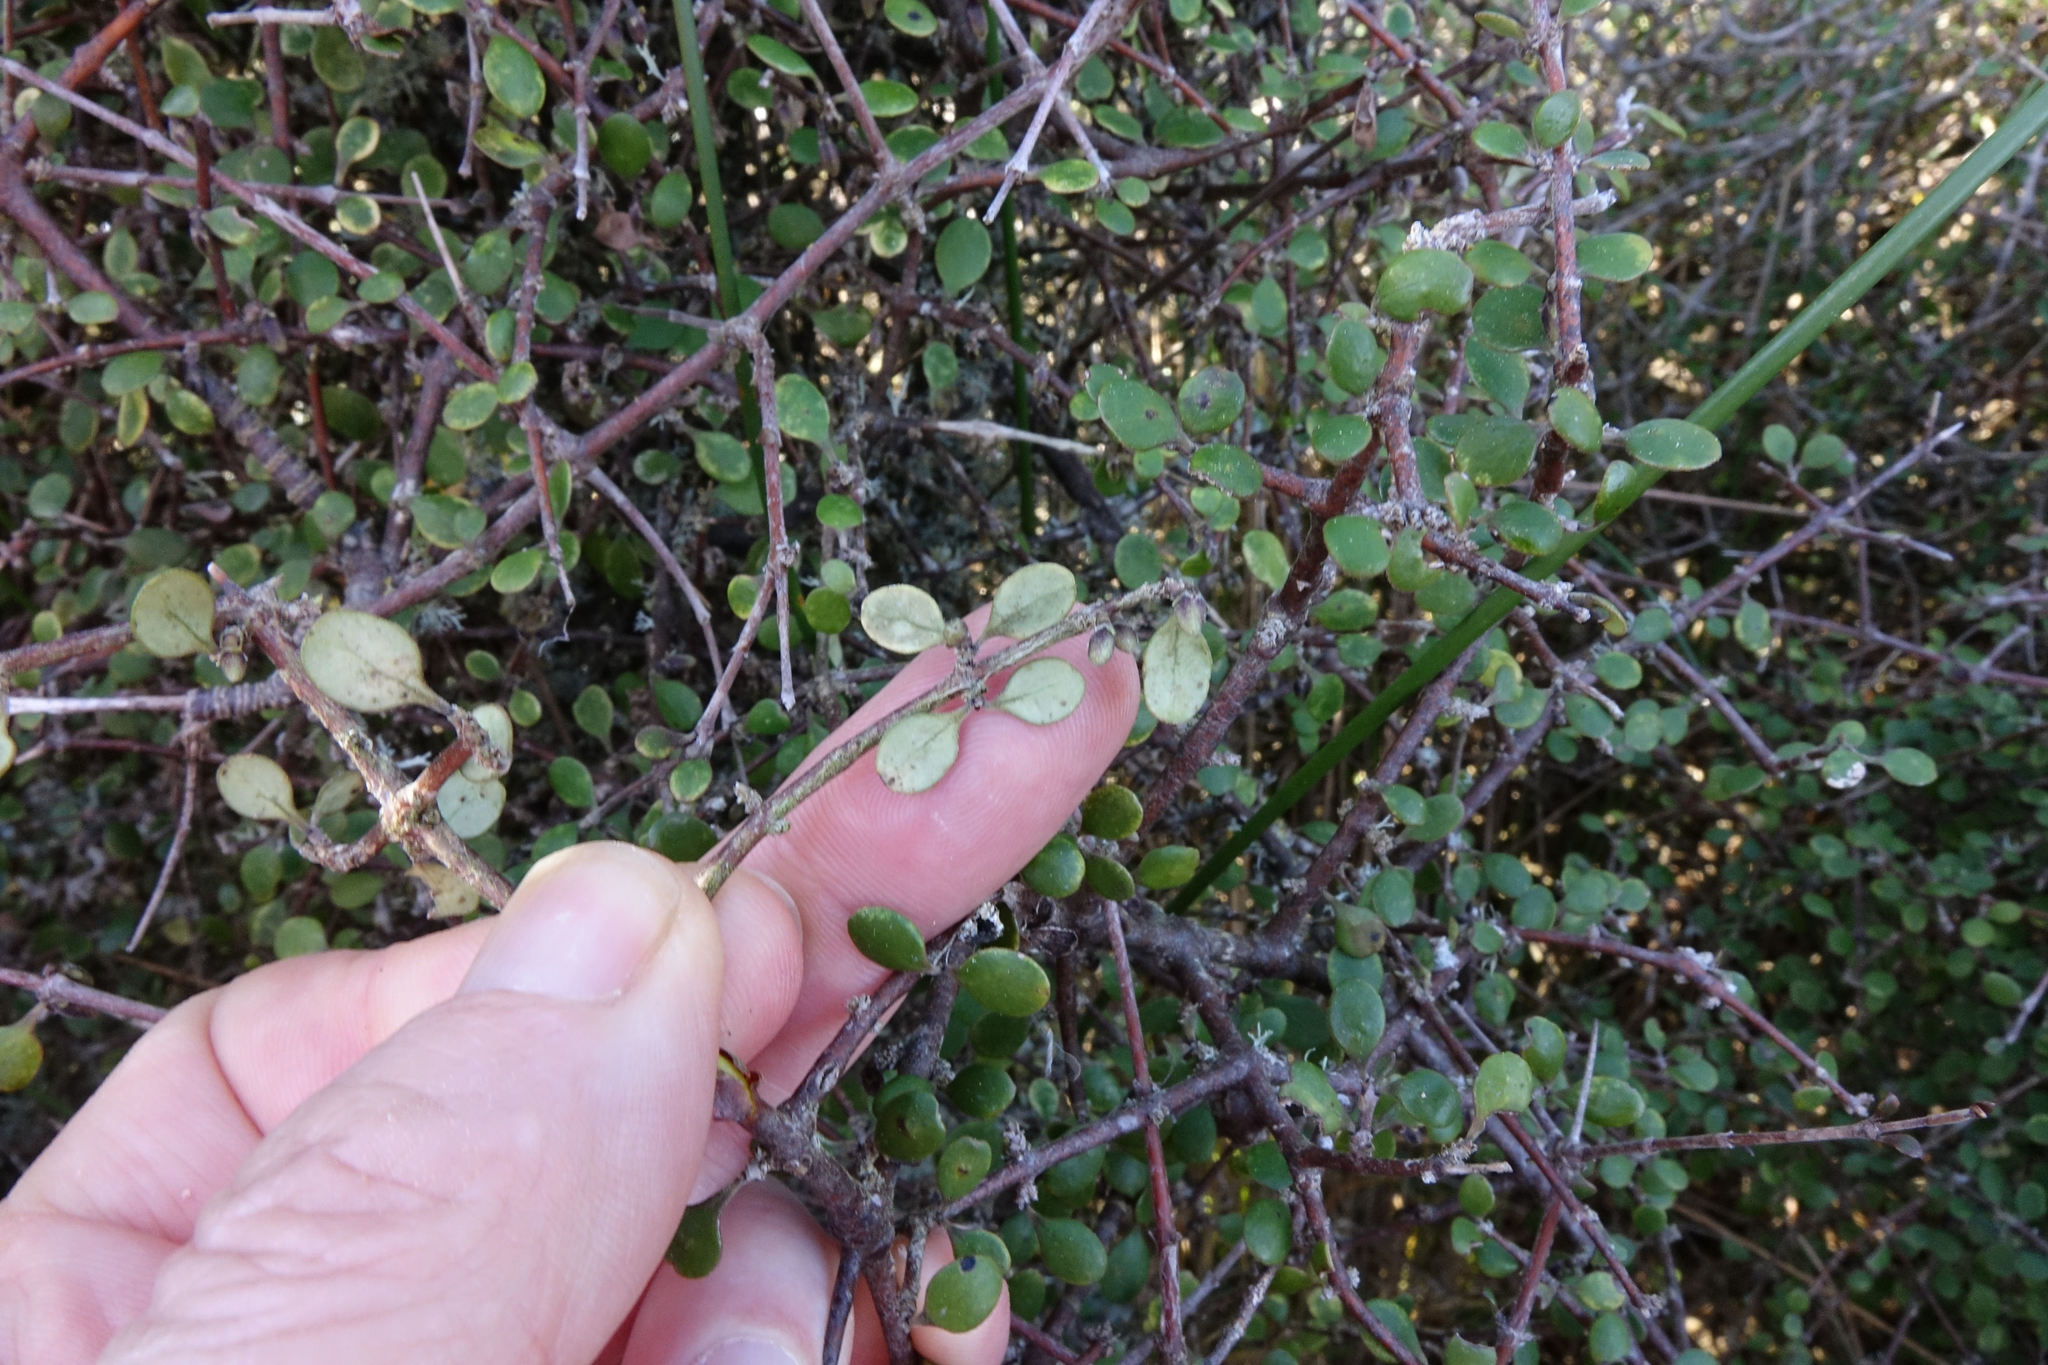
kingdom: Plantae
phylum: Tracheophyta
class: Magnoliopsida
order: Gentianales
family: Rubiaceae
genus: Coprosma
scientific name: Coprosma crassifolia
